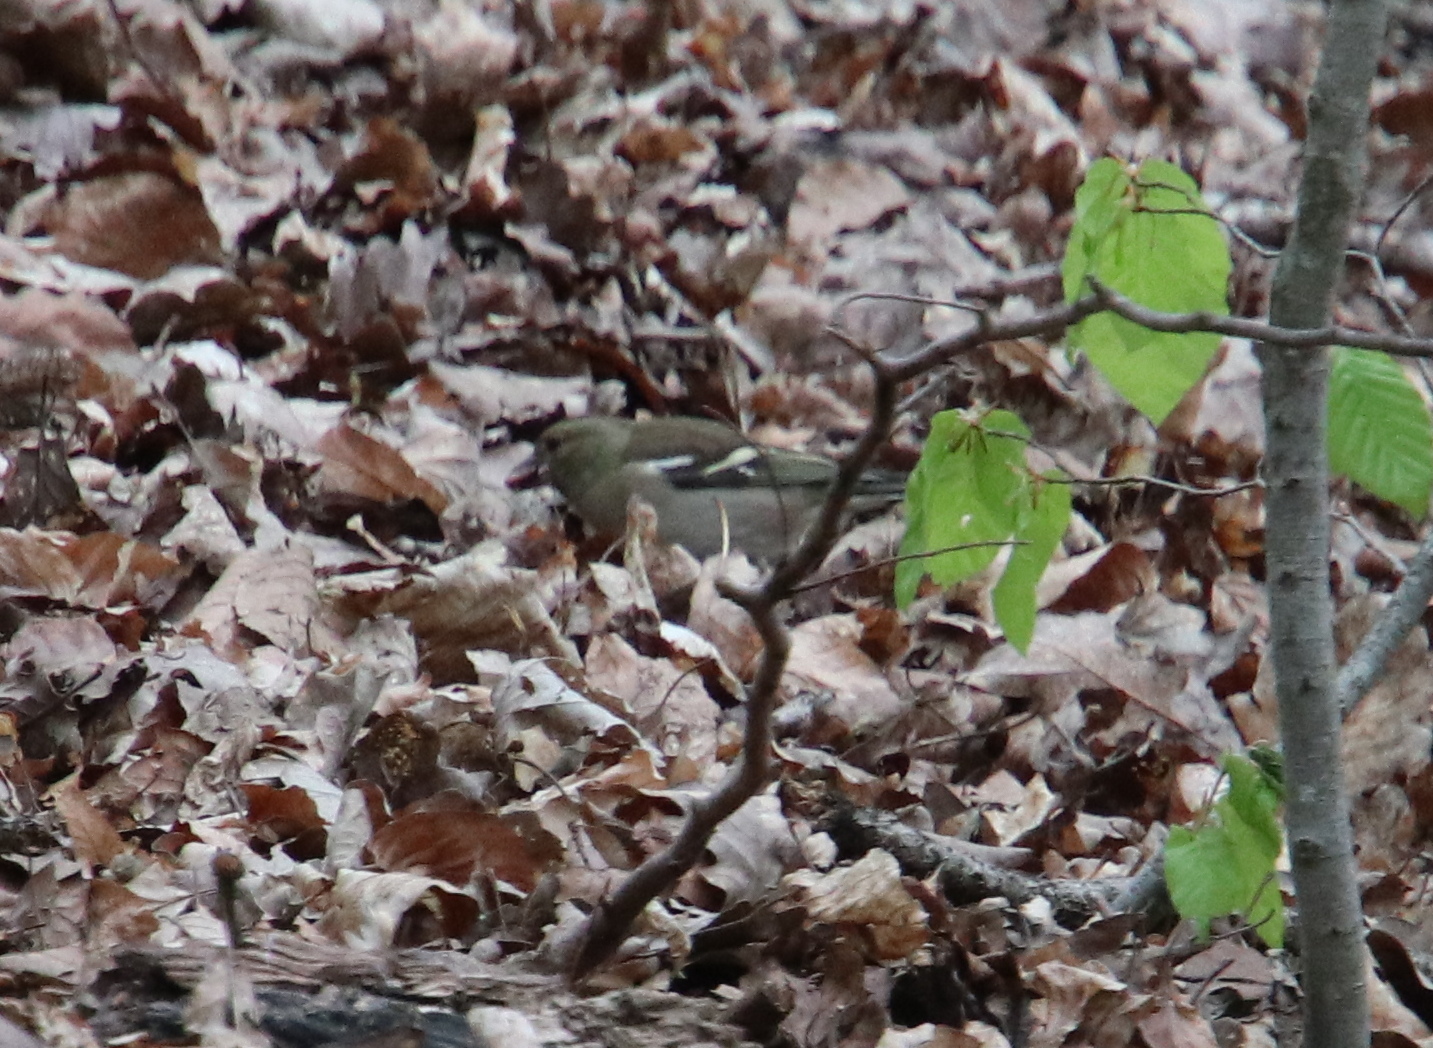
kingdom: Animalia
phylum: Chordata
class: Aves
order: Passeriformes
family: Fringillidae
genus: Fringilla
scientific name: Fringilla coelebs
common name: Common chaffinch
